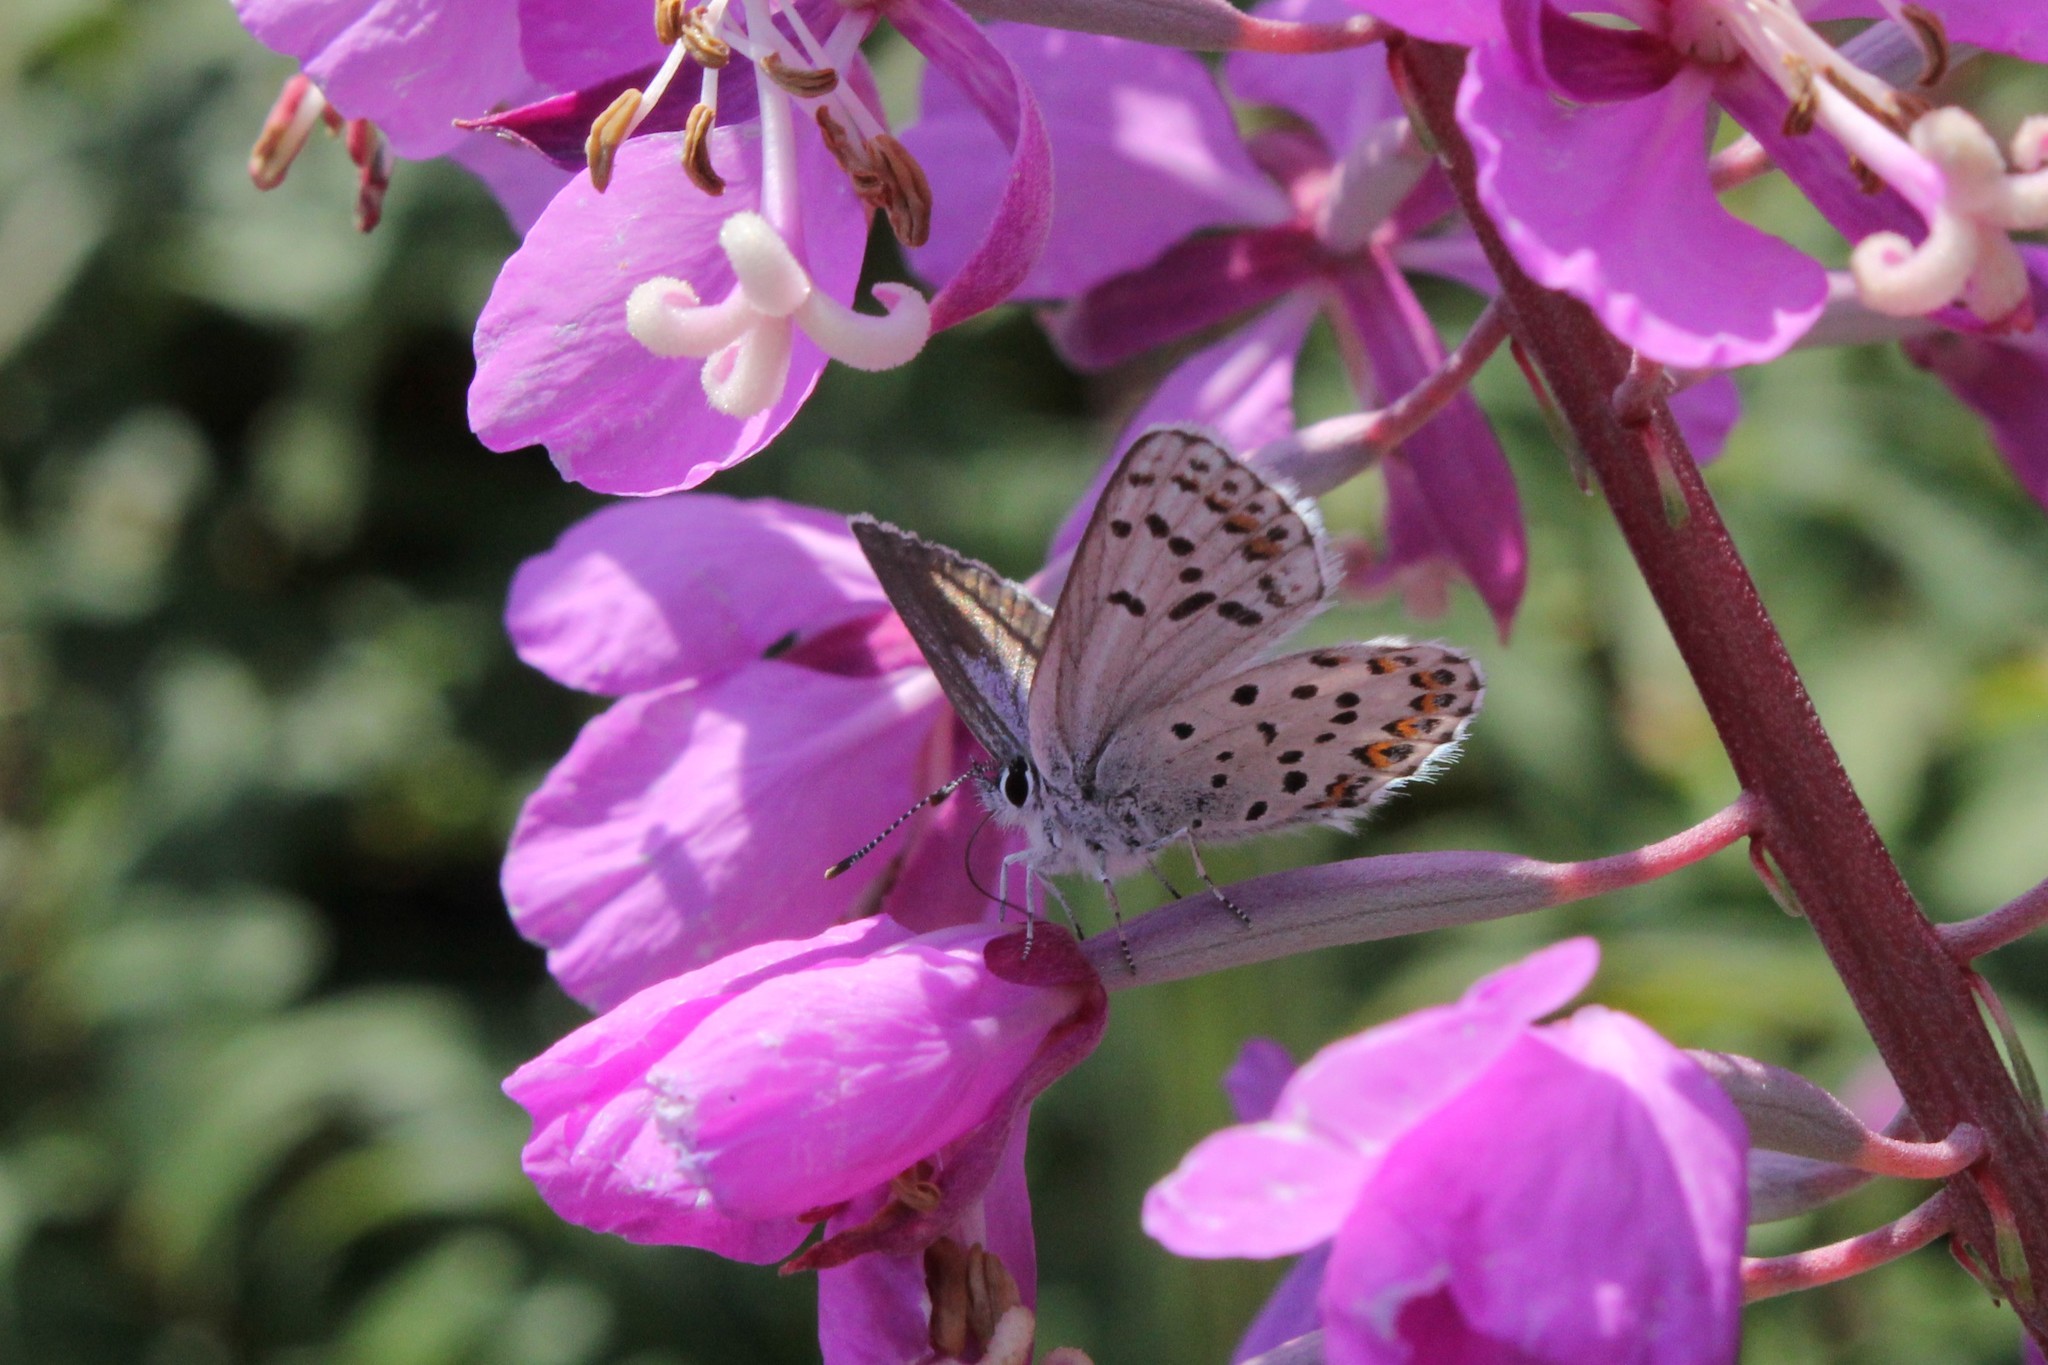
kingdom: Animalia
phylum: Arthropoda
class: Insecta
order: Lepidoptera
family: Lycaenidae
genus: Lycaeides
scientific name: Lycaeides idas
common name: Northern blue
